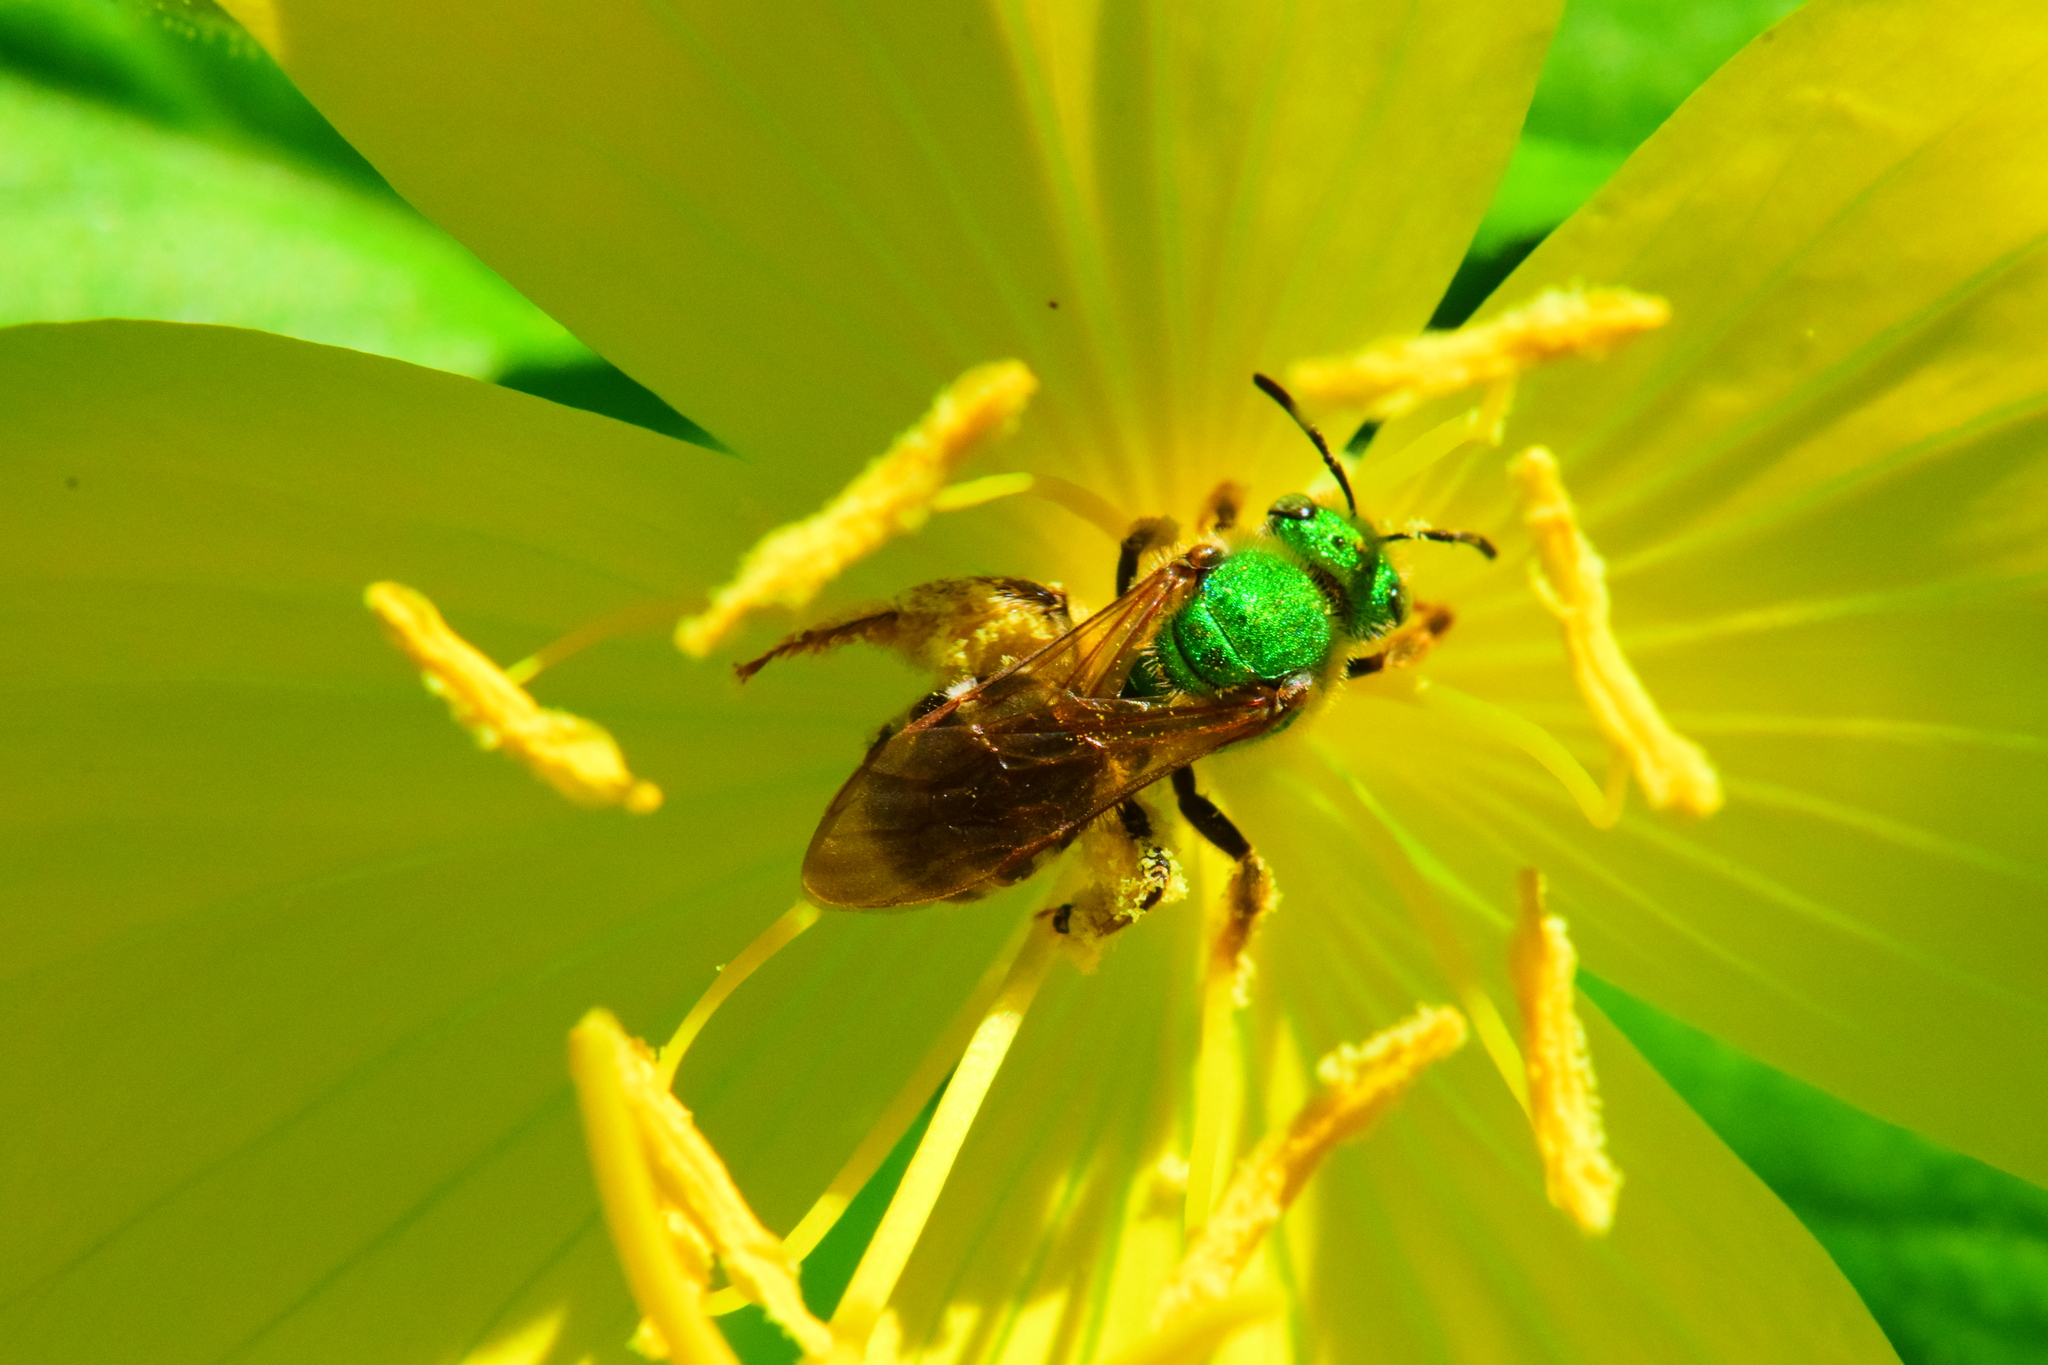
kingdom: Animalia
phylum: Arthropoda
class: Insecta
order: Hymenoptera
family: Halictidae
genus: Agapostemon
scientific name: Agapostemon virescens
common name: Bicolored striped sweat bee
